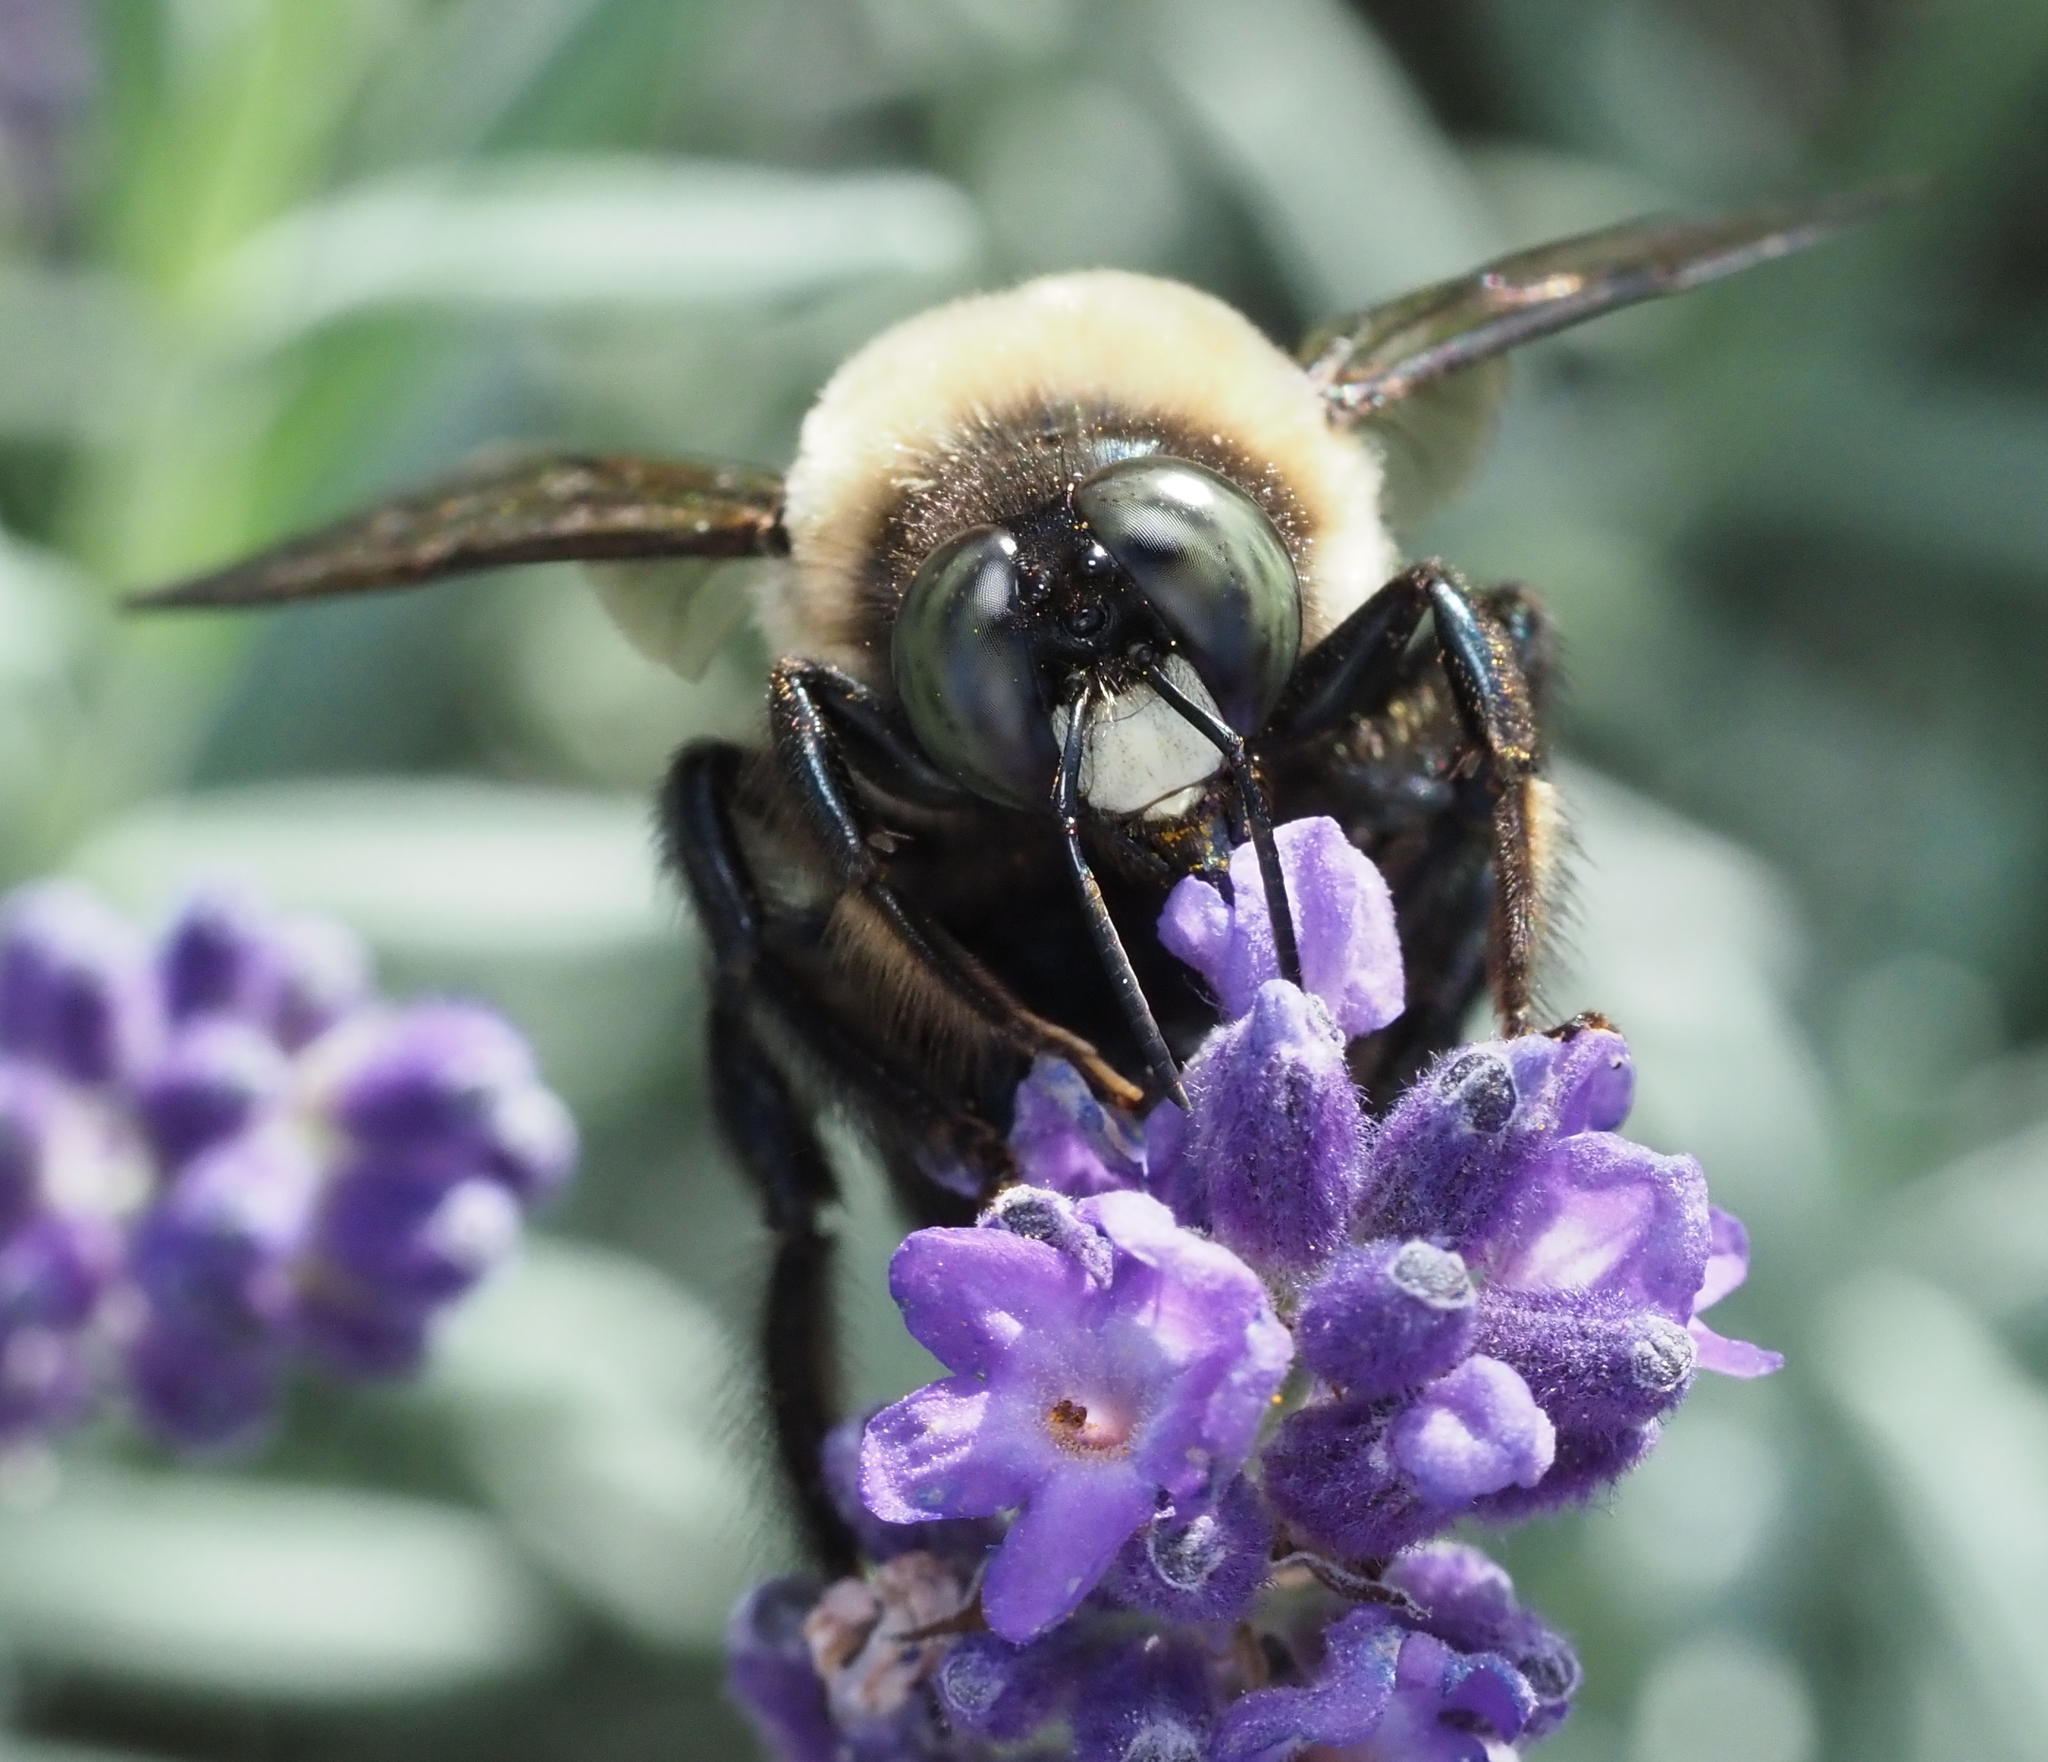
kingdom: Animalia
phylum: Arthropoda
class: Insecta
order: Hymenoptera
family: Apidae
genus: Xylocopa
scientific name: Xylocopa virginica
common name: Carpenter bee
